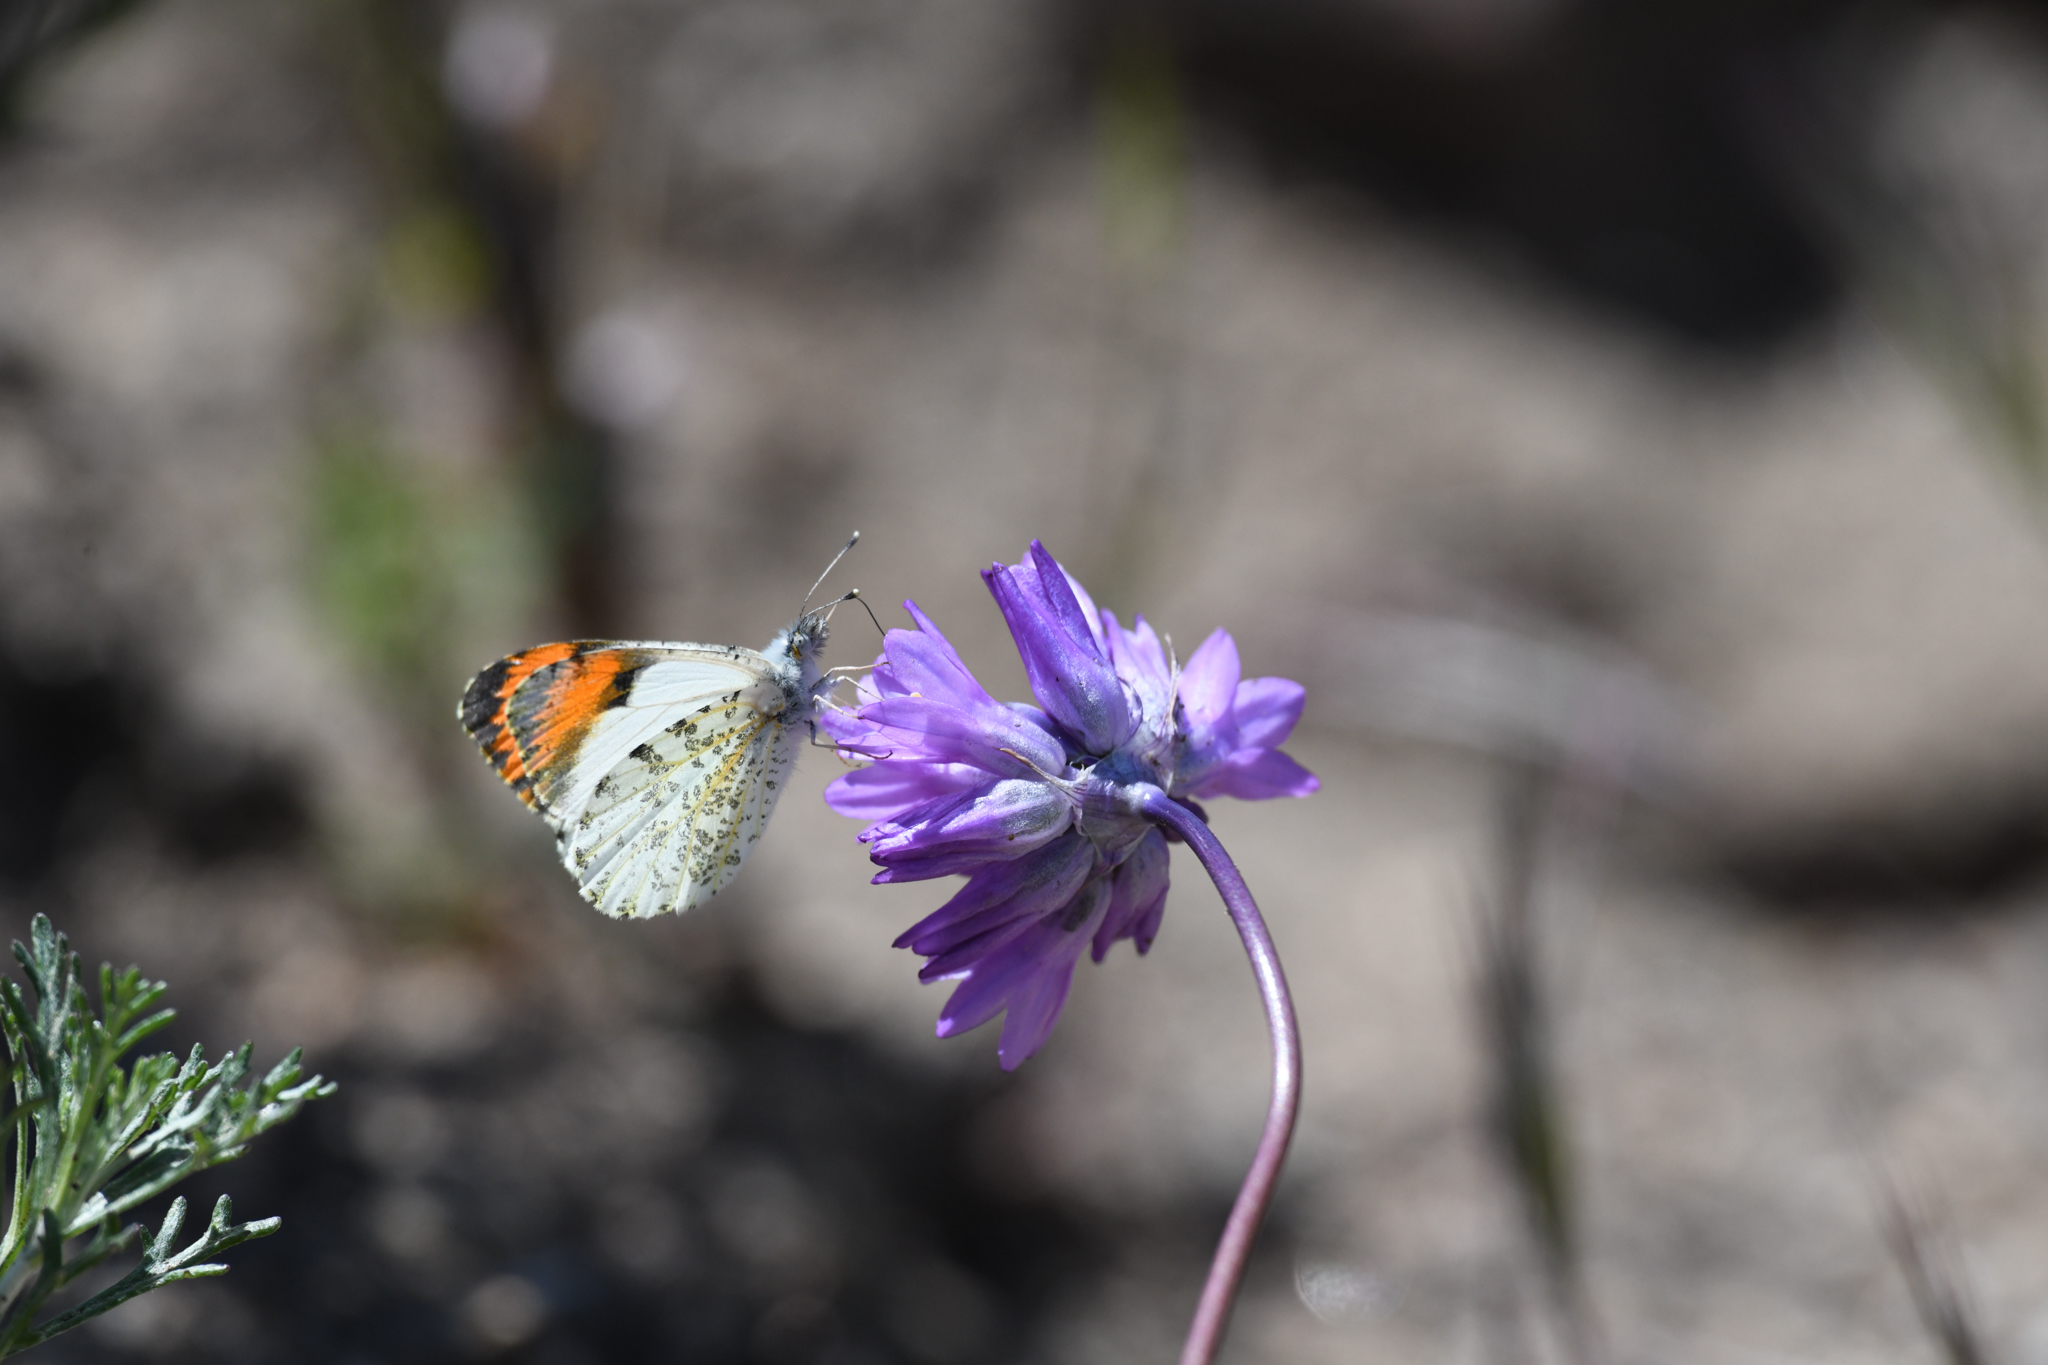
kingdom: Animalia
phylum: Arthropoda
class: Insecta
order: Lepidoptera
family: Pieridae
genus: Anthocharis
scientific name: Anthocharis sara
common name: Sara's orangetip
